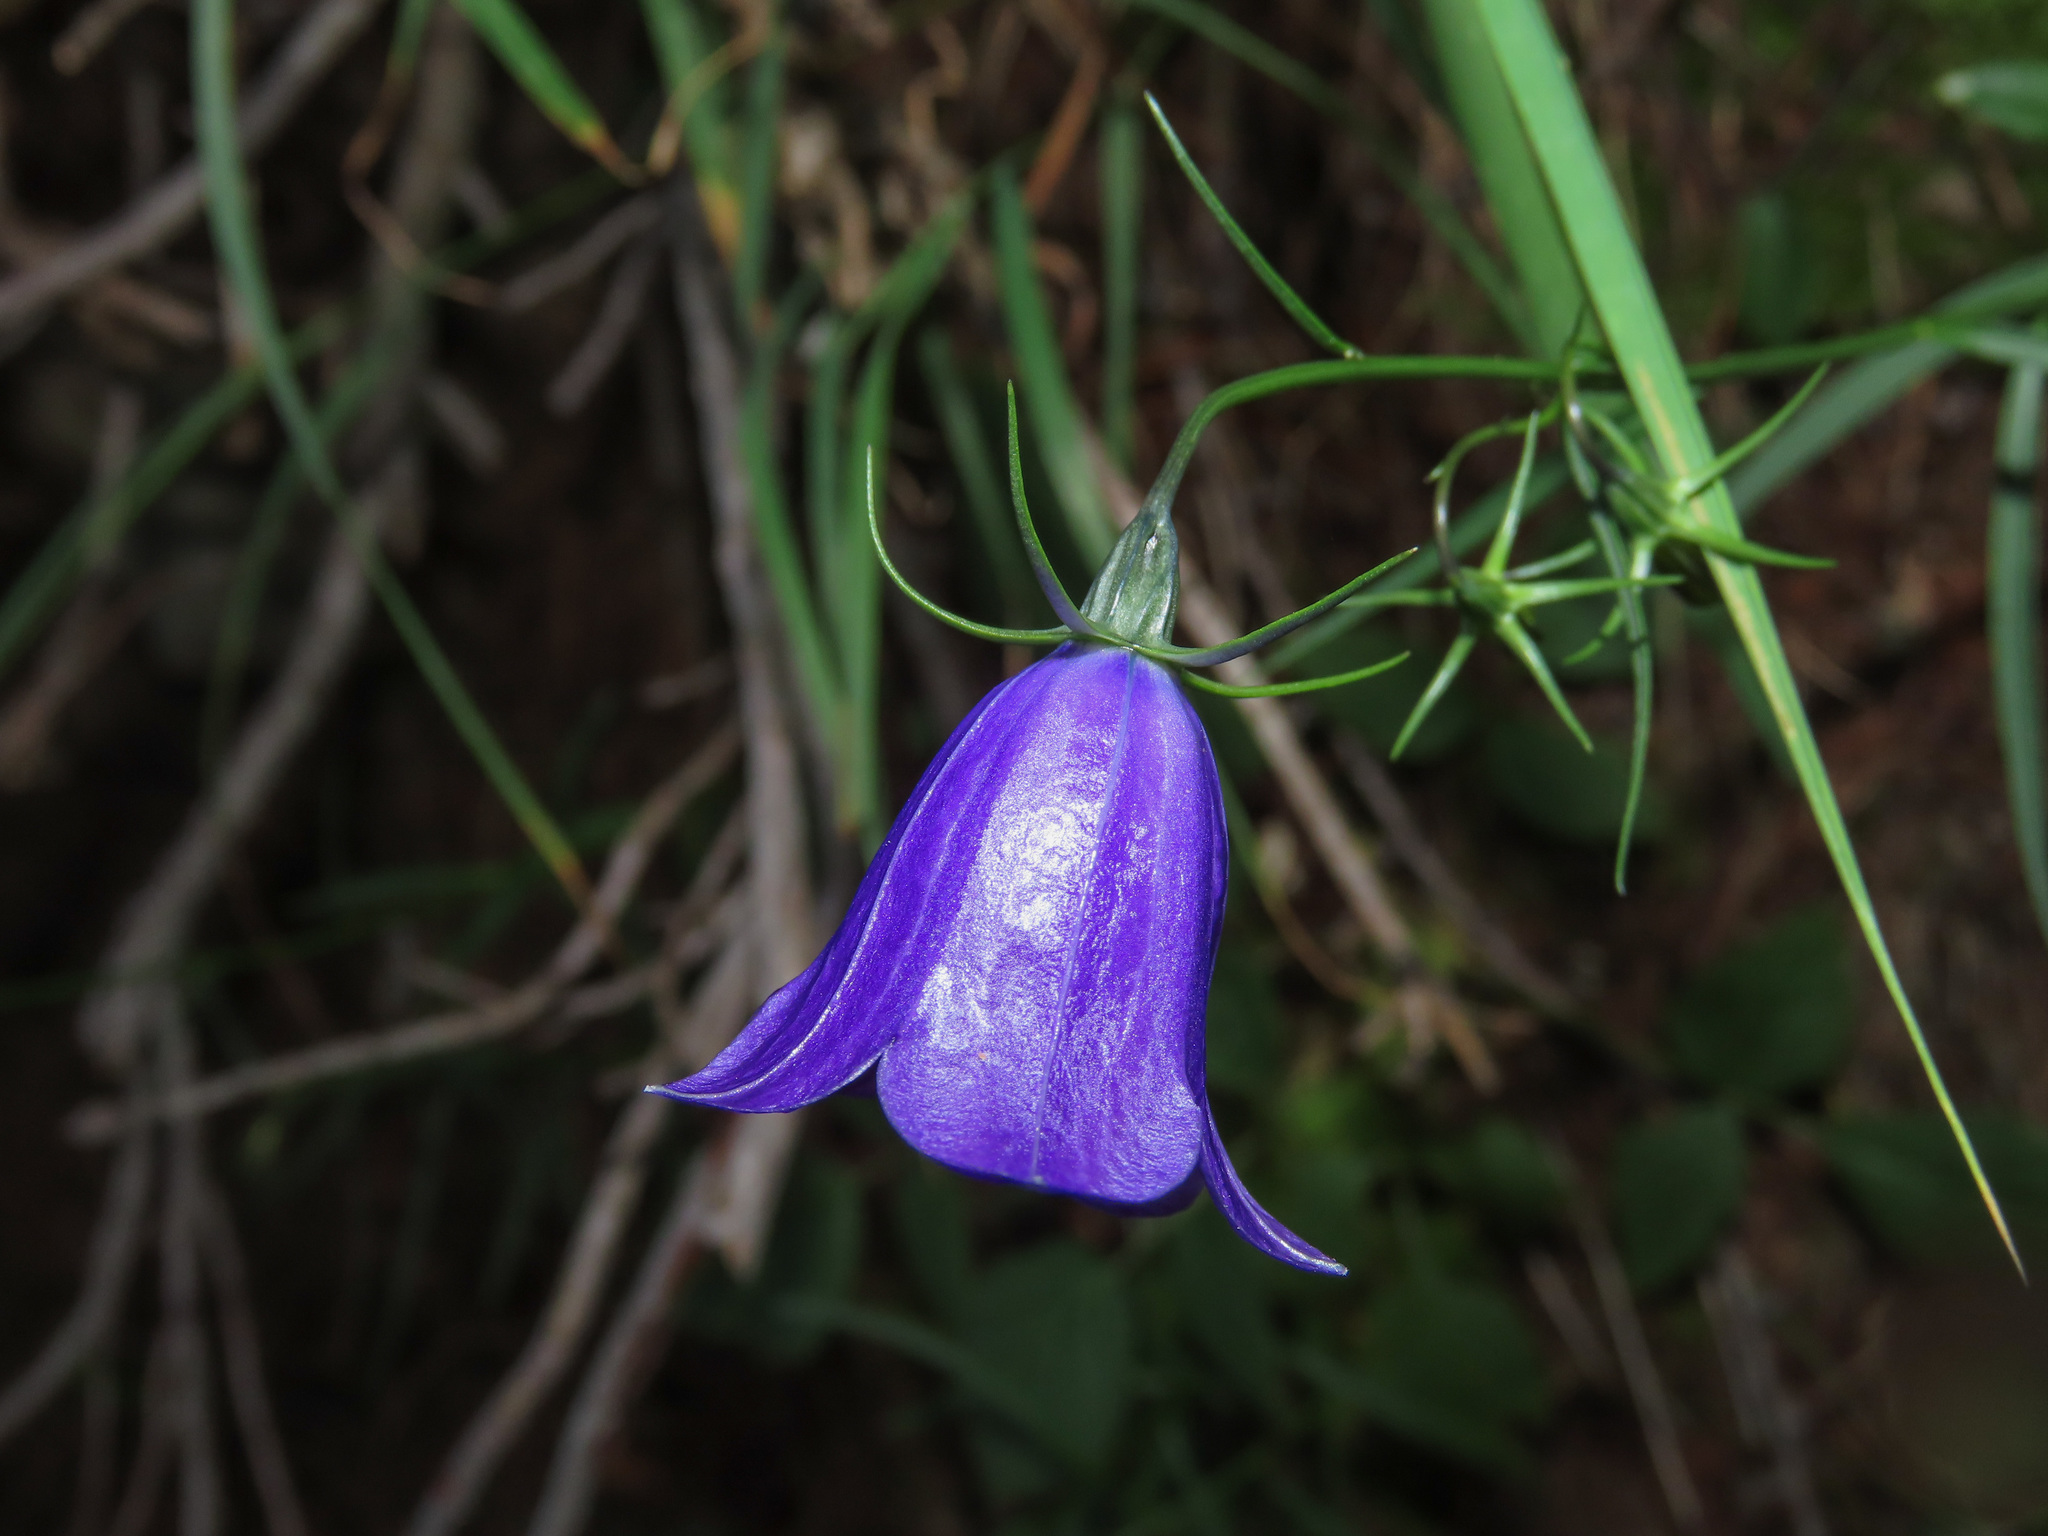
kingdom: Plantae
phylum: Tracheophyta
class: Magnoliopsida
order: Asterales
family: Campanulaceae
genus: Campanula
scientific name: Campanula scheuchzeri
